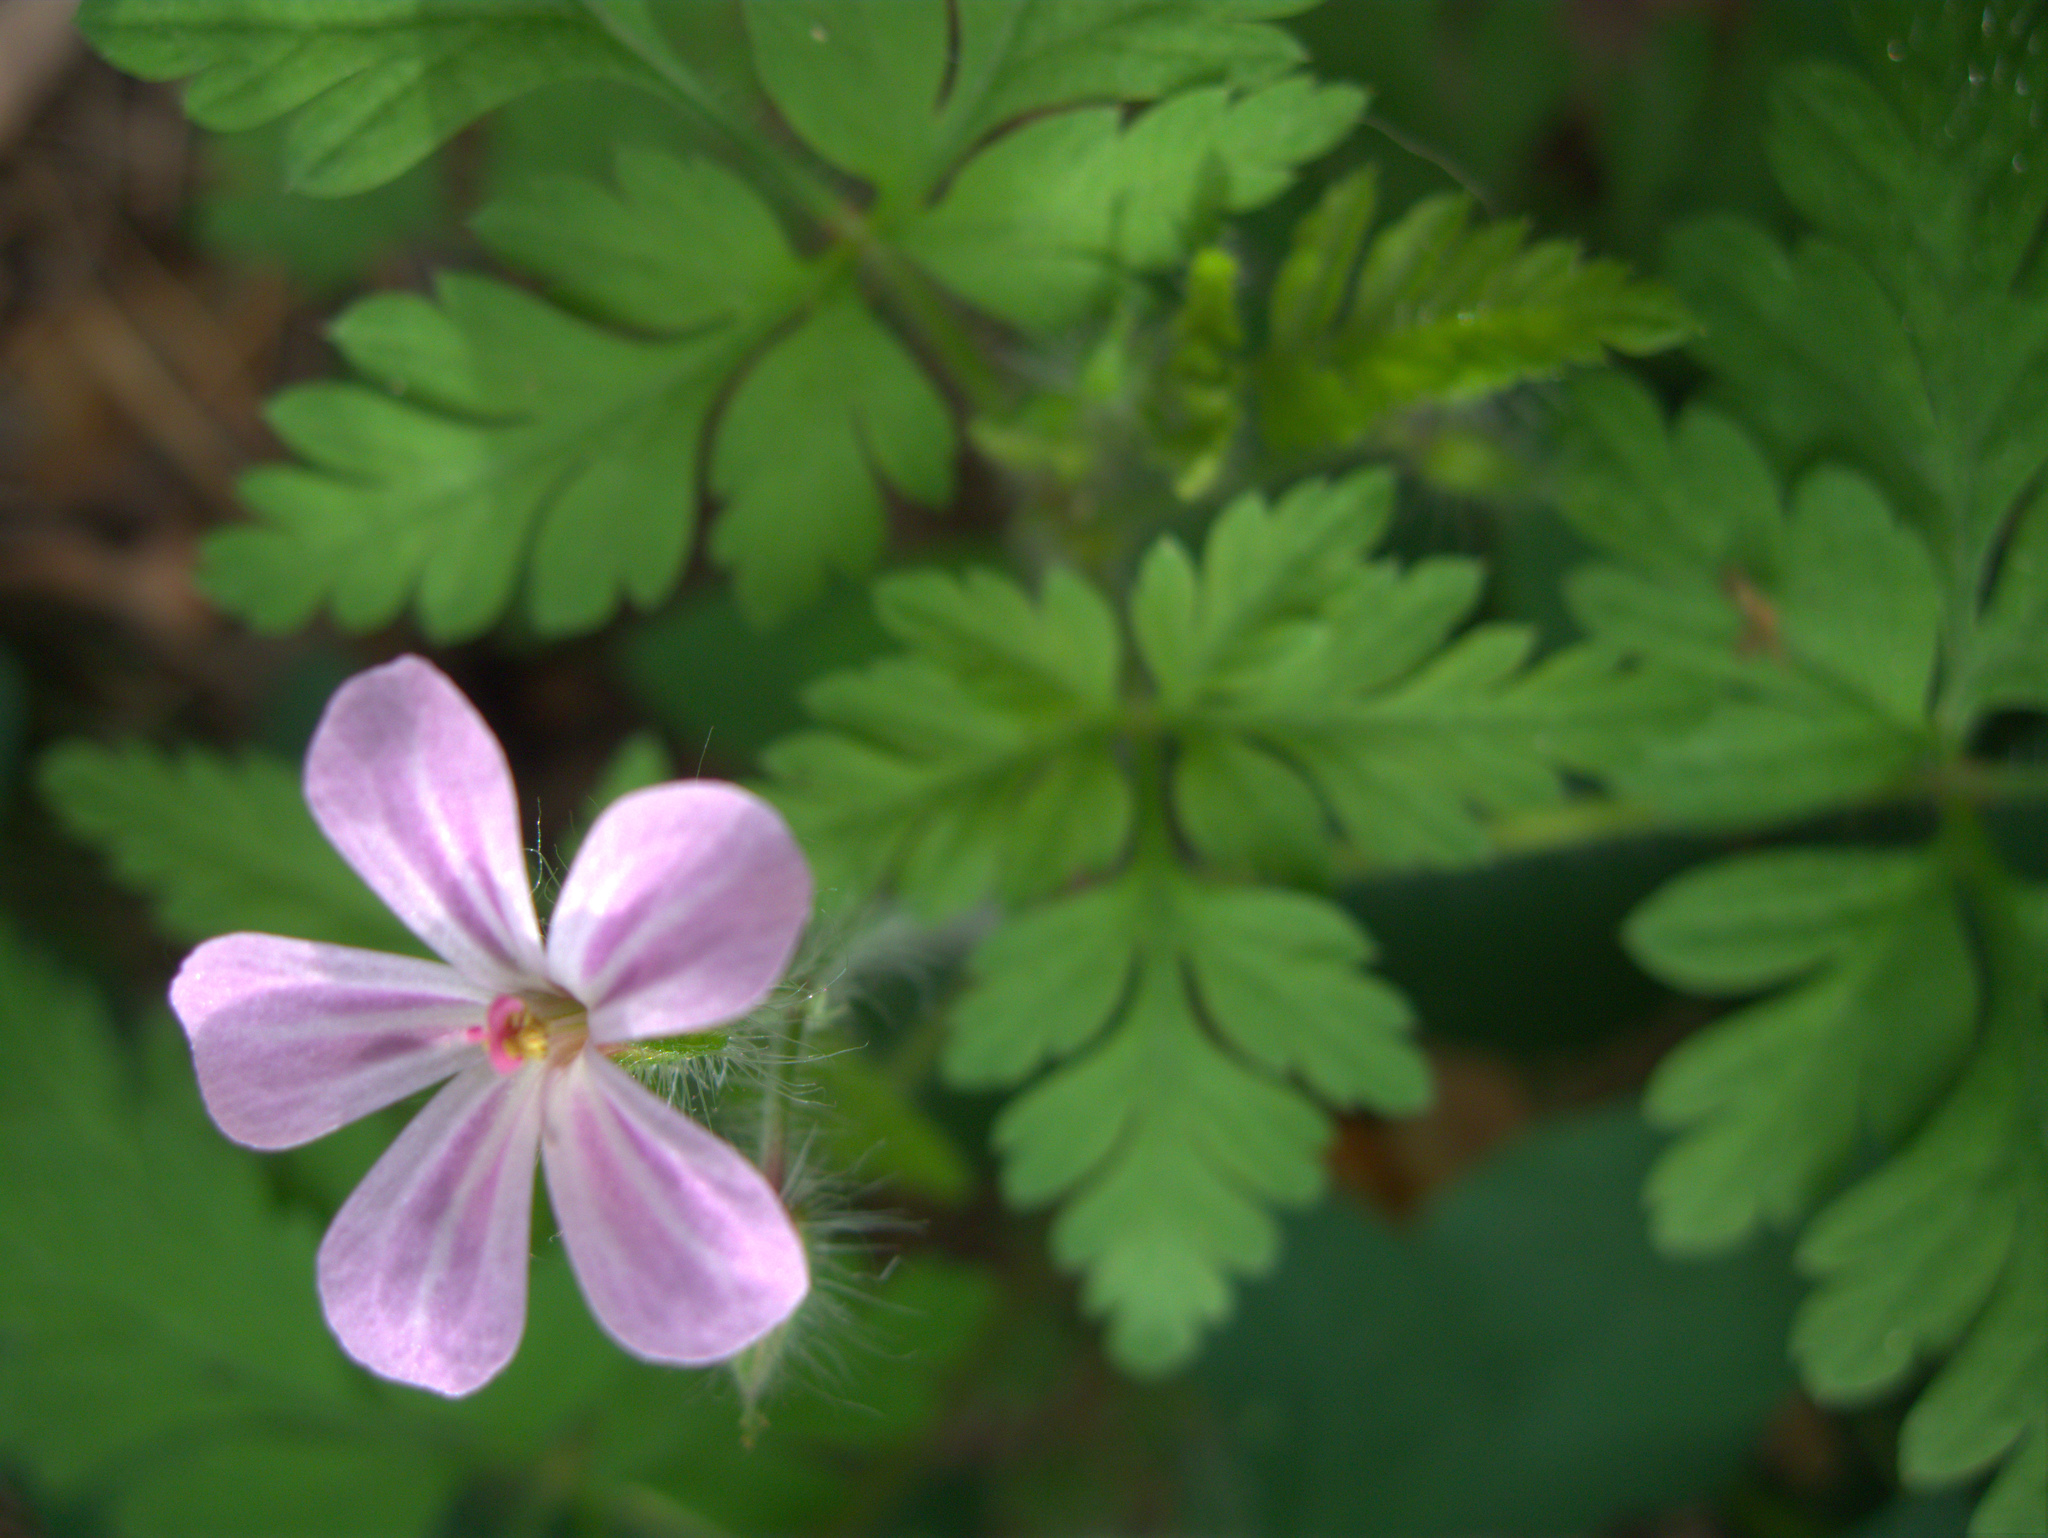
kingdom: Plantae
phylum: Tracheophyta
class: Magnoliopsida
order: Geraniales
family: Geraniaceae
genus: Geranium
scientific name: Geranium robertianum
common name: Herb-robert
